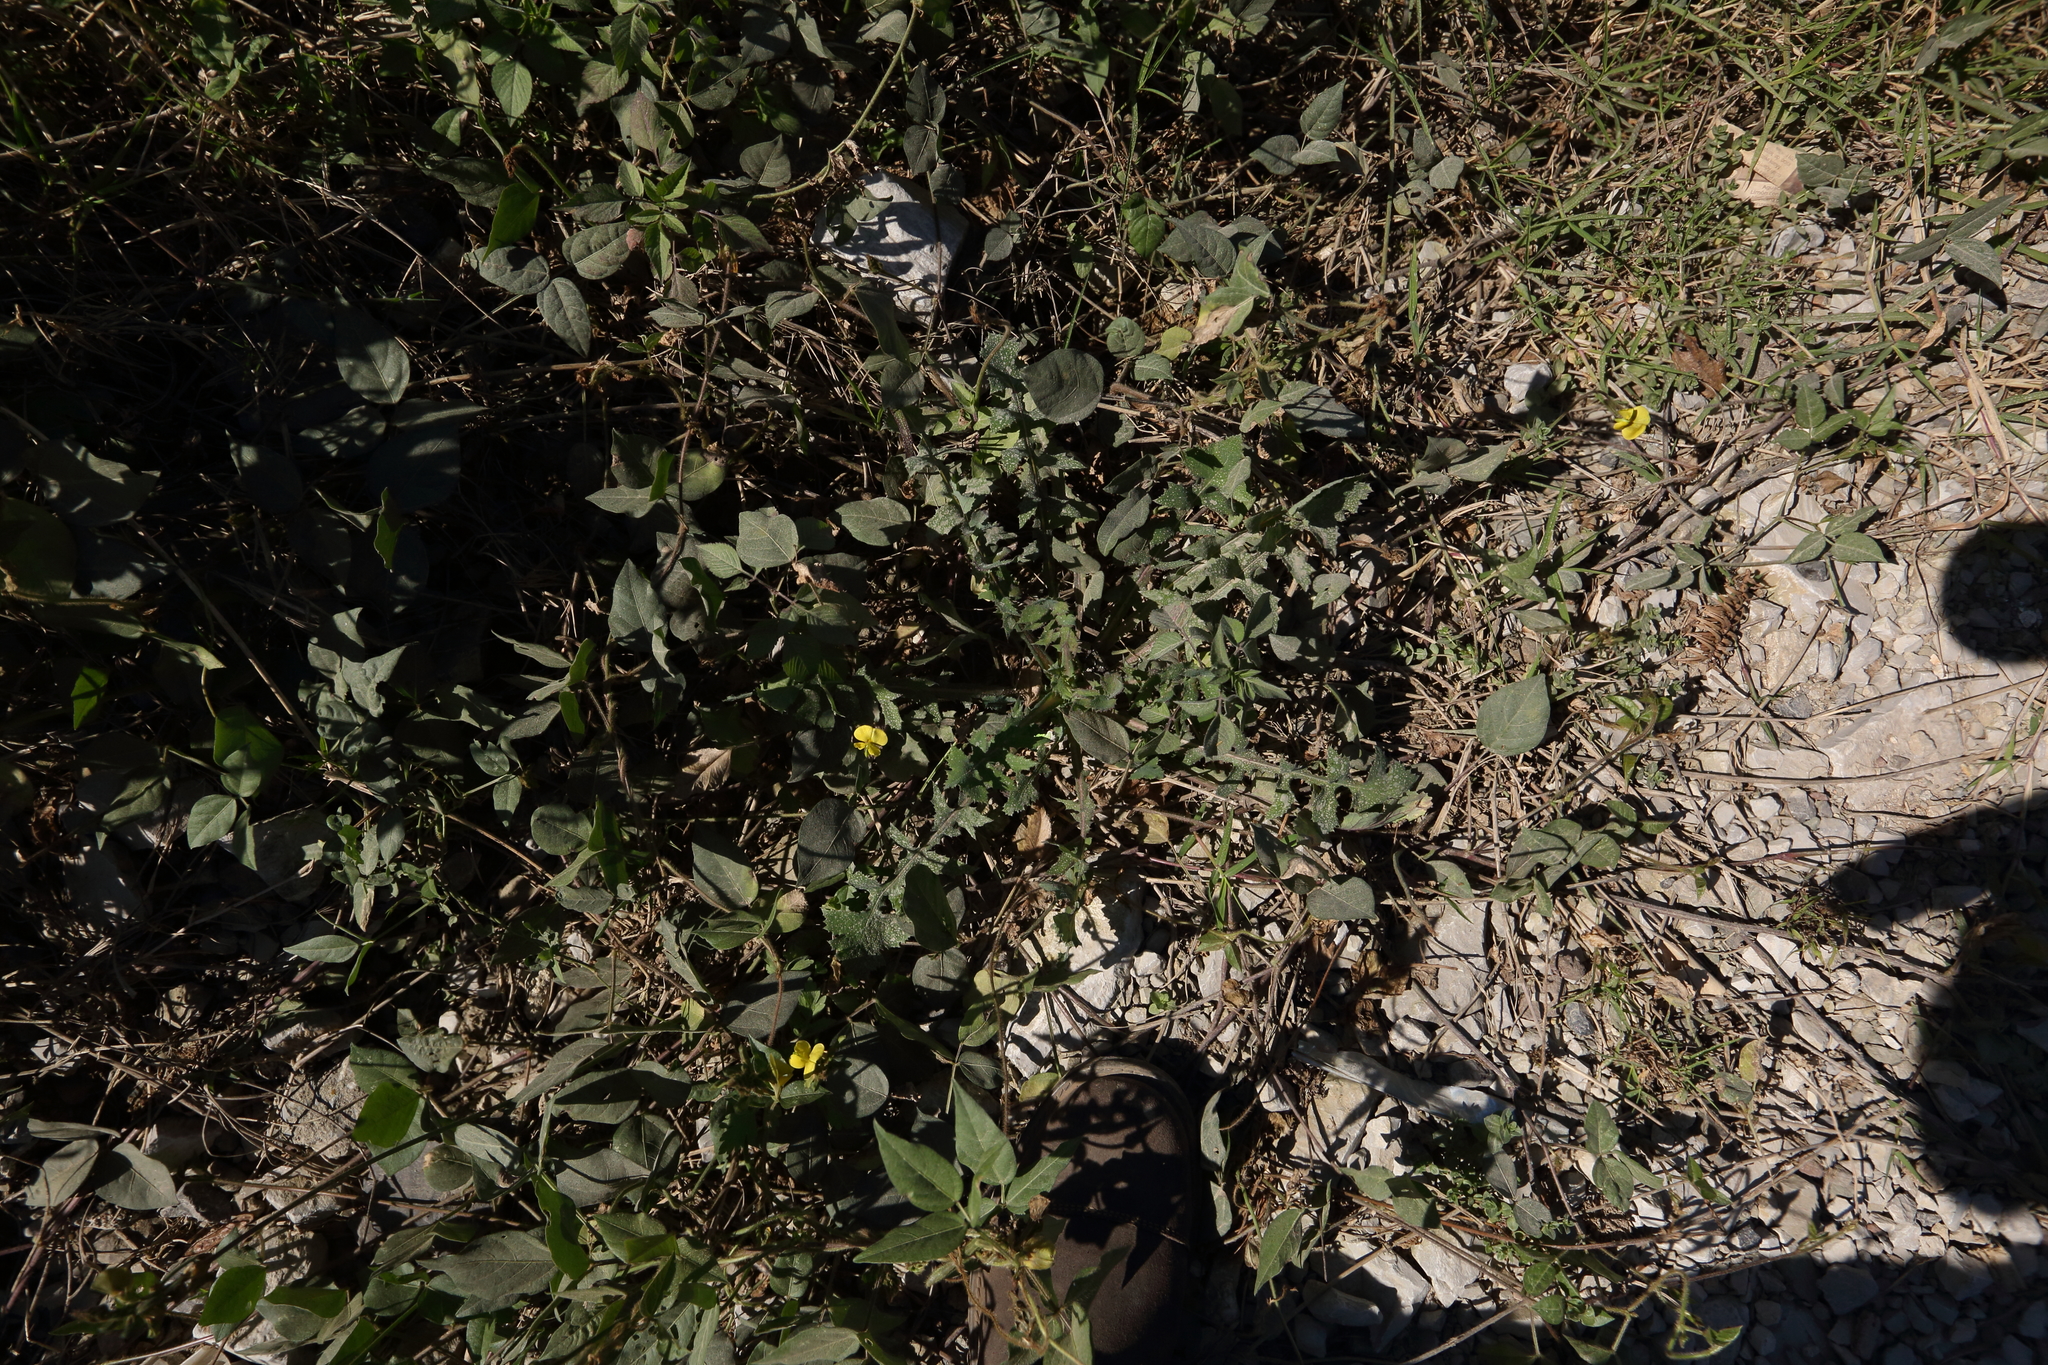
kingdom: Plantae
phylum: Tracheophyta
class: Magnoliopsida
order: Fabales
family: Fabaceae
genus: Vigna
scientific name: Vigna lasiocarpa
